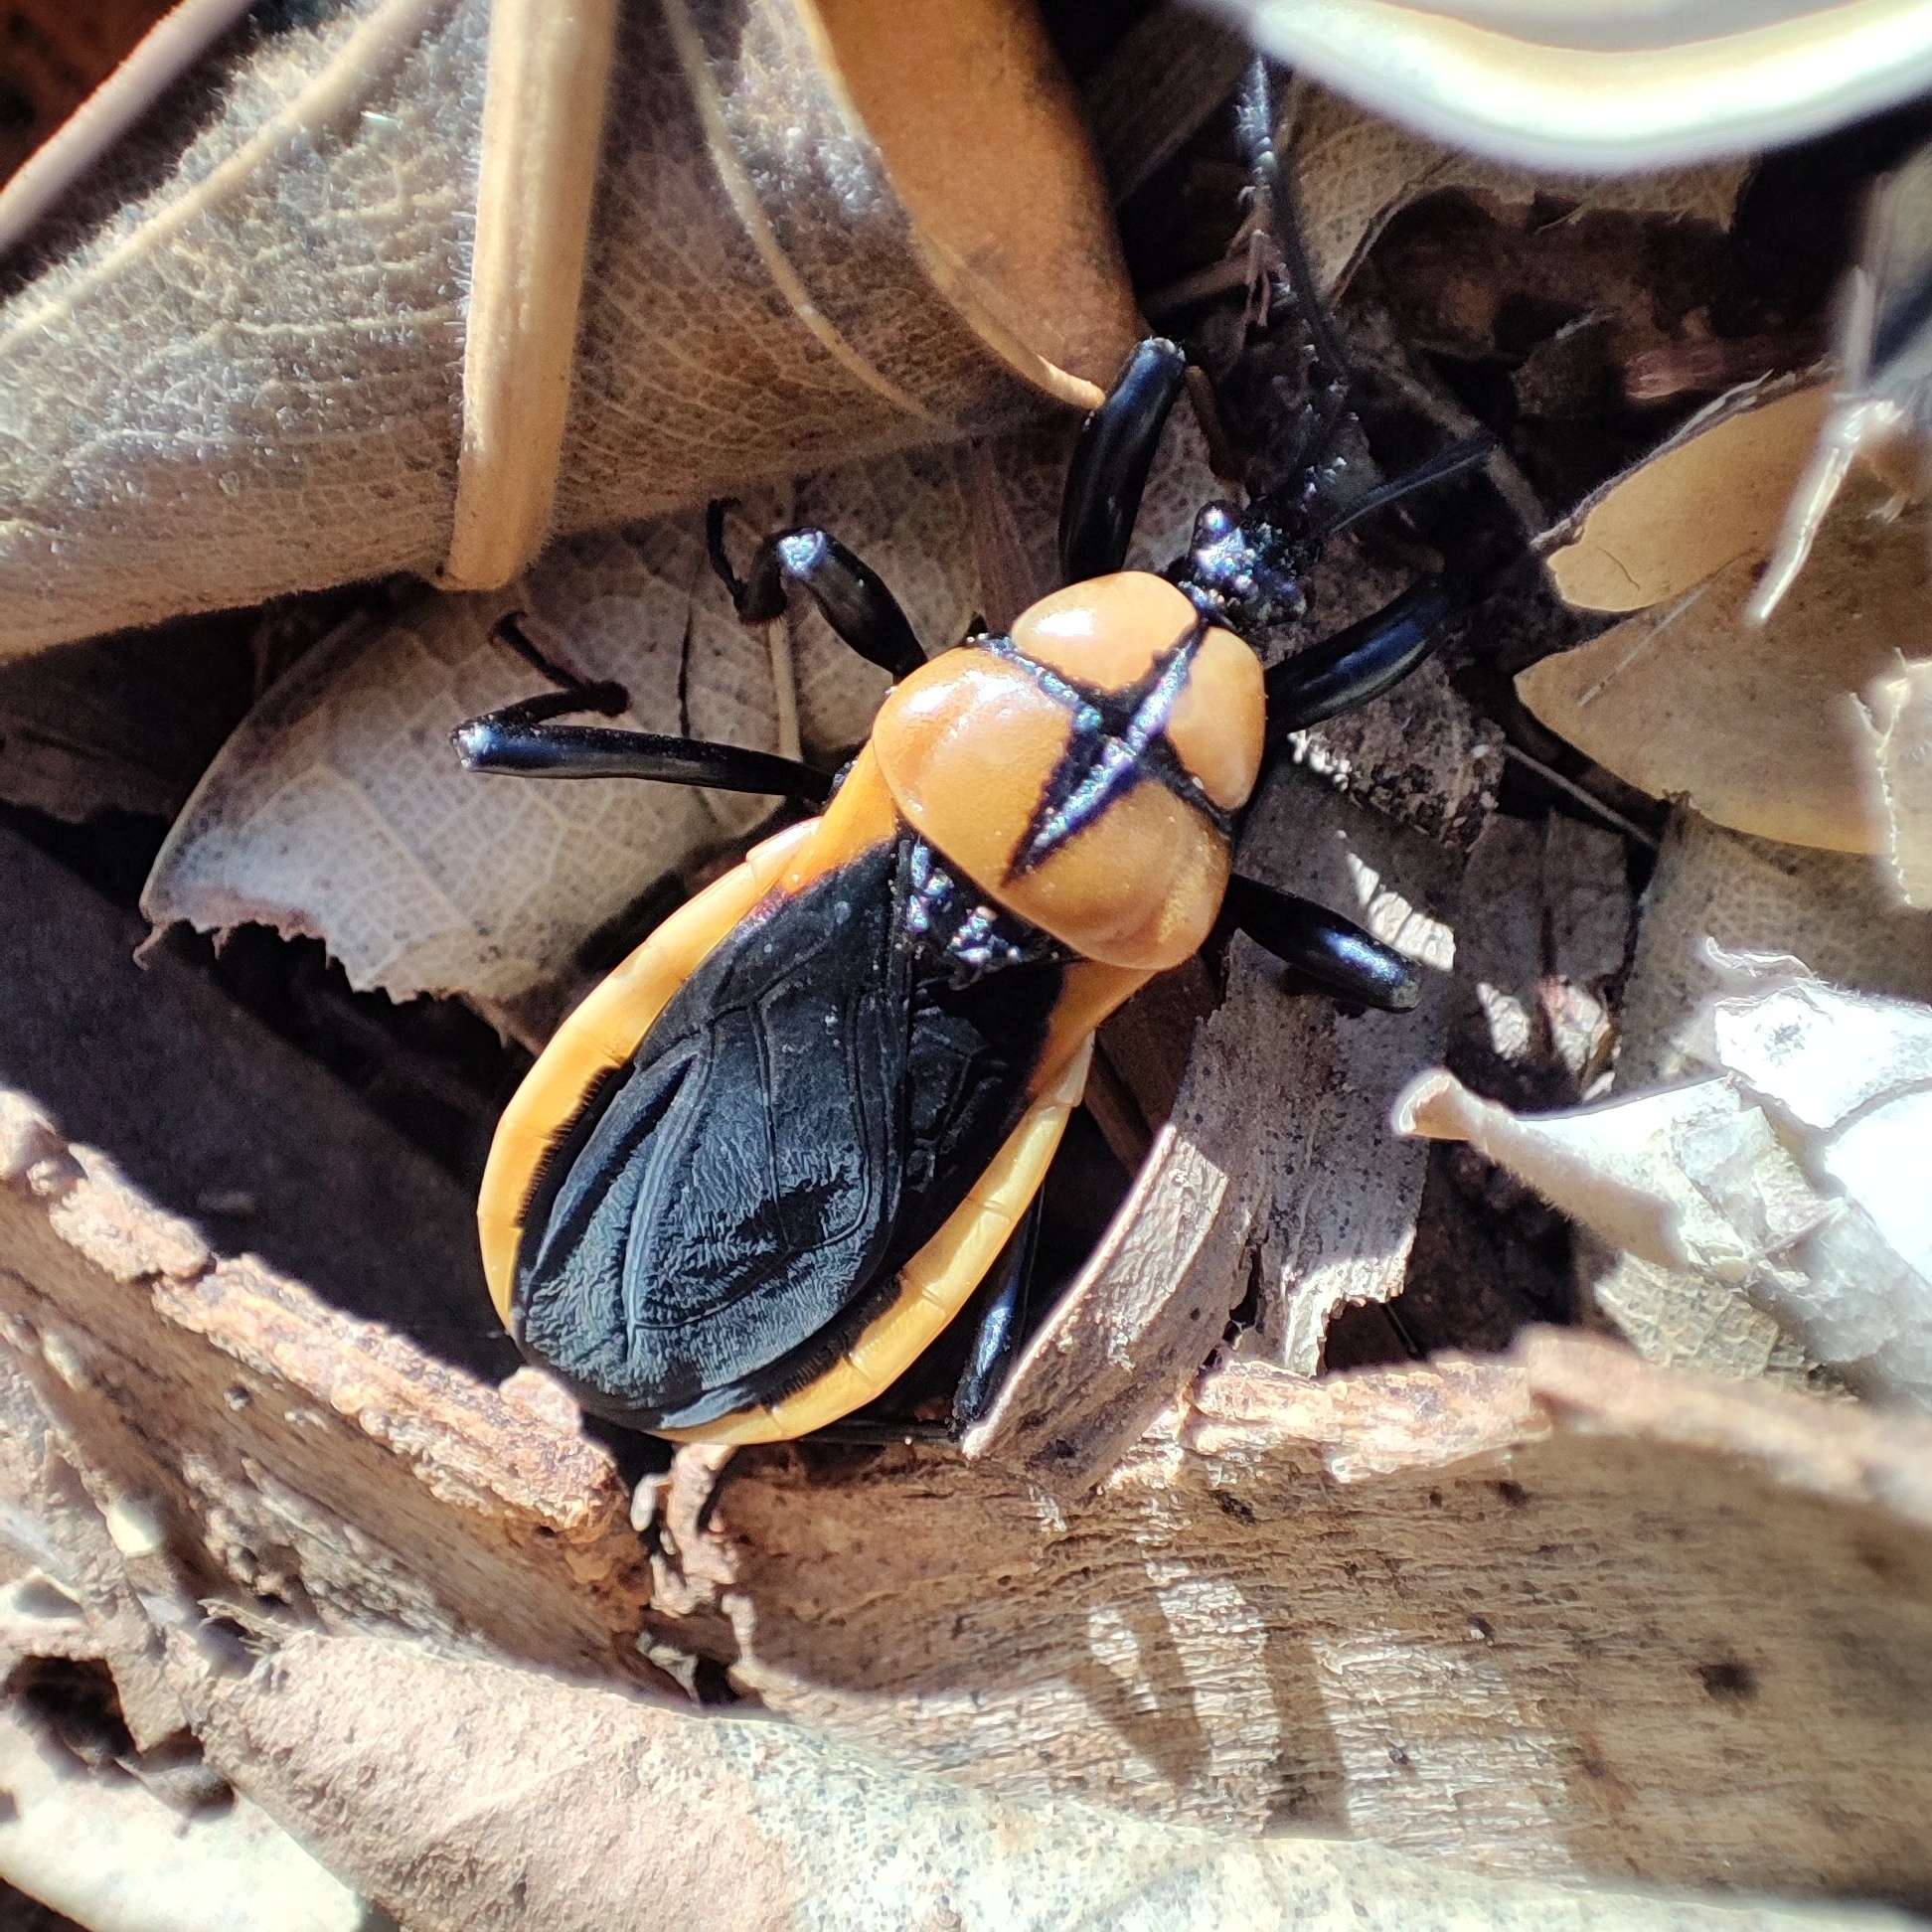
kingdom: Animalia
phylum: Arthropoda
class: Insecta
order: Hemiptera
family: Reduviidae
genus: Ectrichodia
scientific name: Ectrichodia crux
